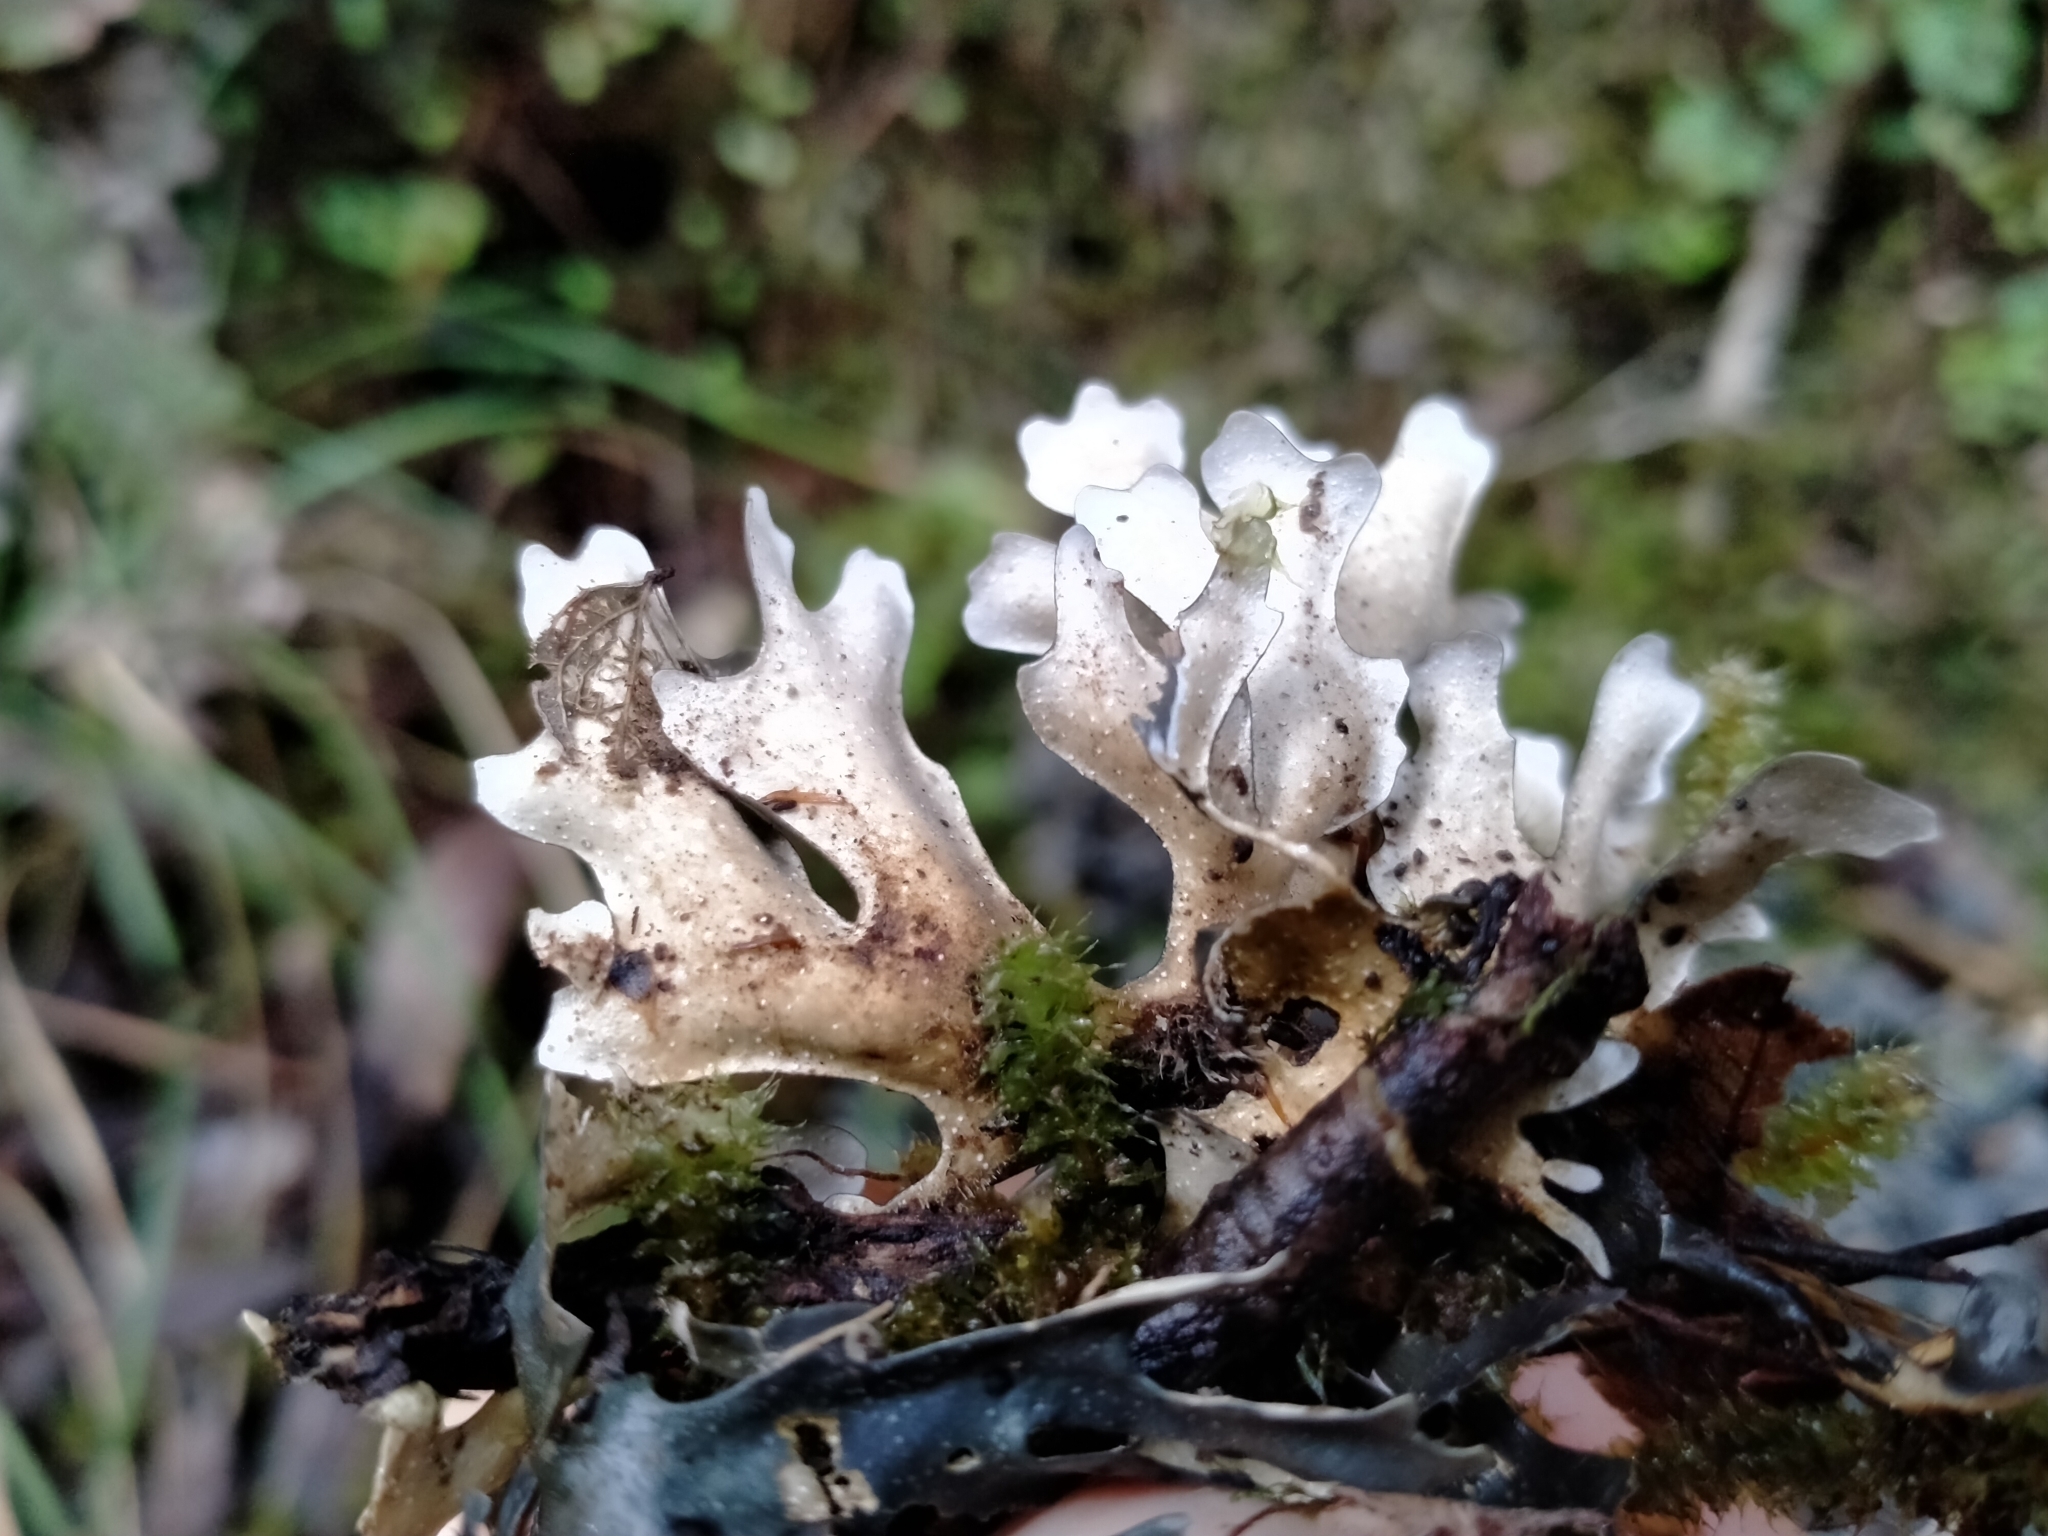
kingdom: Fungi
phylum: Ascomycota
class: Lecanoromycetes
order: Peltigerales
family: Lobariaceae
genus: Pseudocyphellaria
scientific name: Pseudocyphellaria cinnamomea
